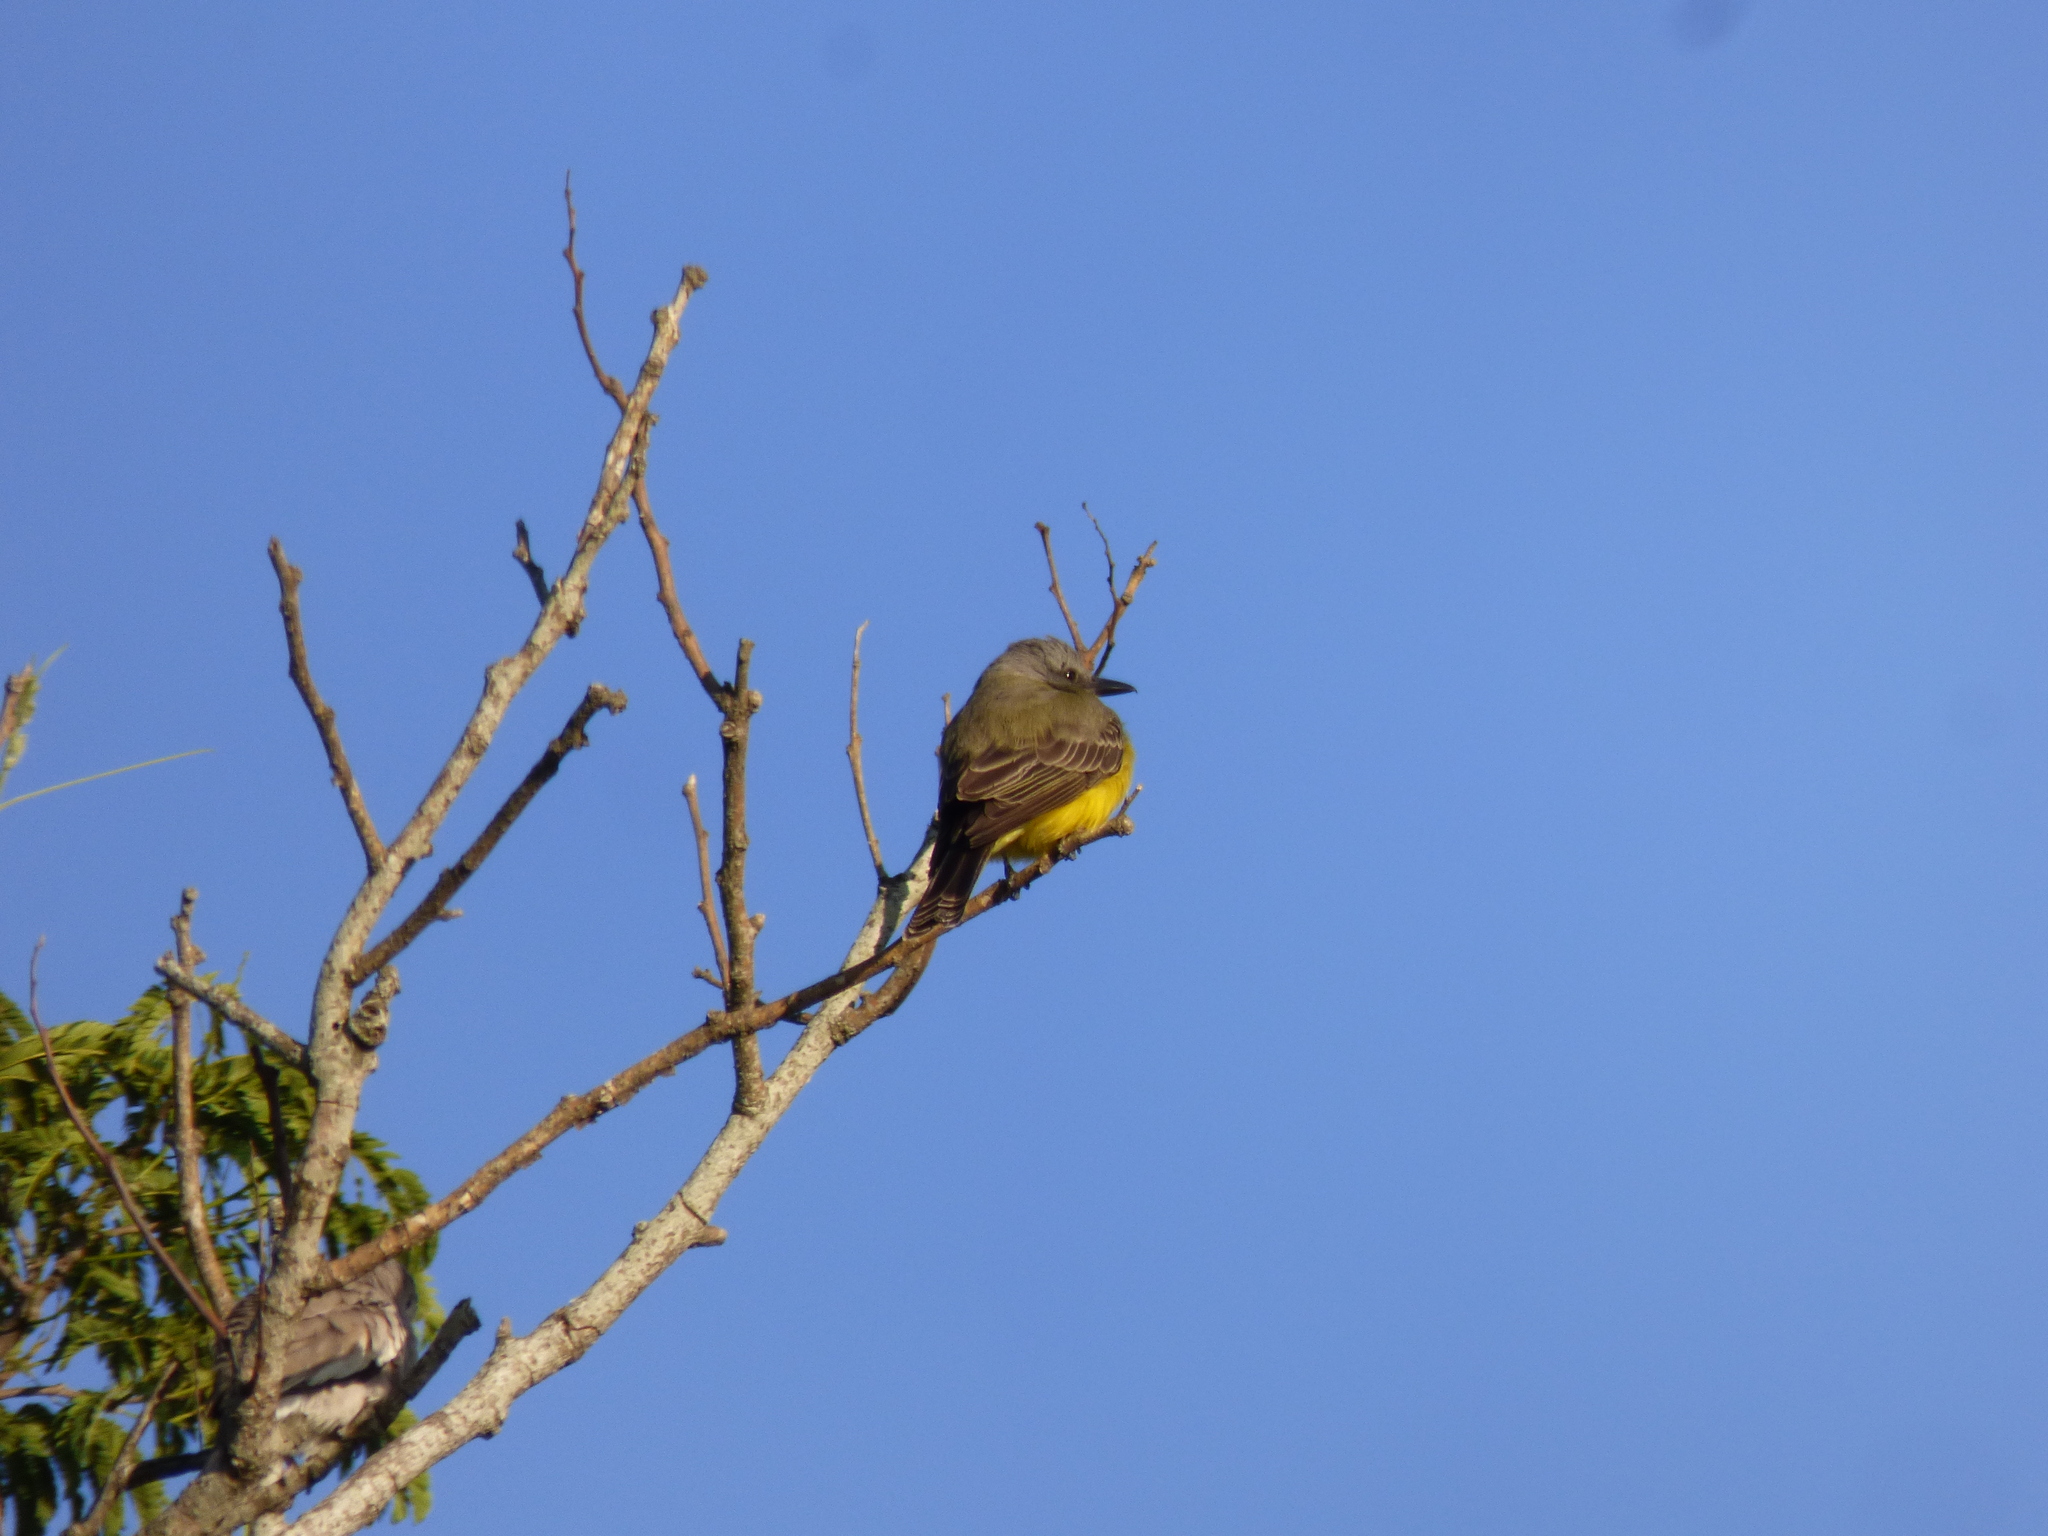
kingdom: Animalia
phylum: Chordata
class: Aves
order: Passeriformes
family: Tyrannidae
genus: Tyrannus
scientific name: Tyrannus melancholicus
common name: Tropical kingbird
